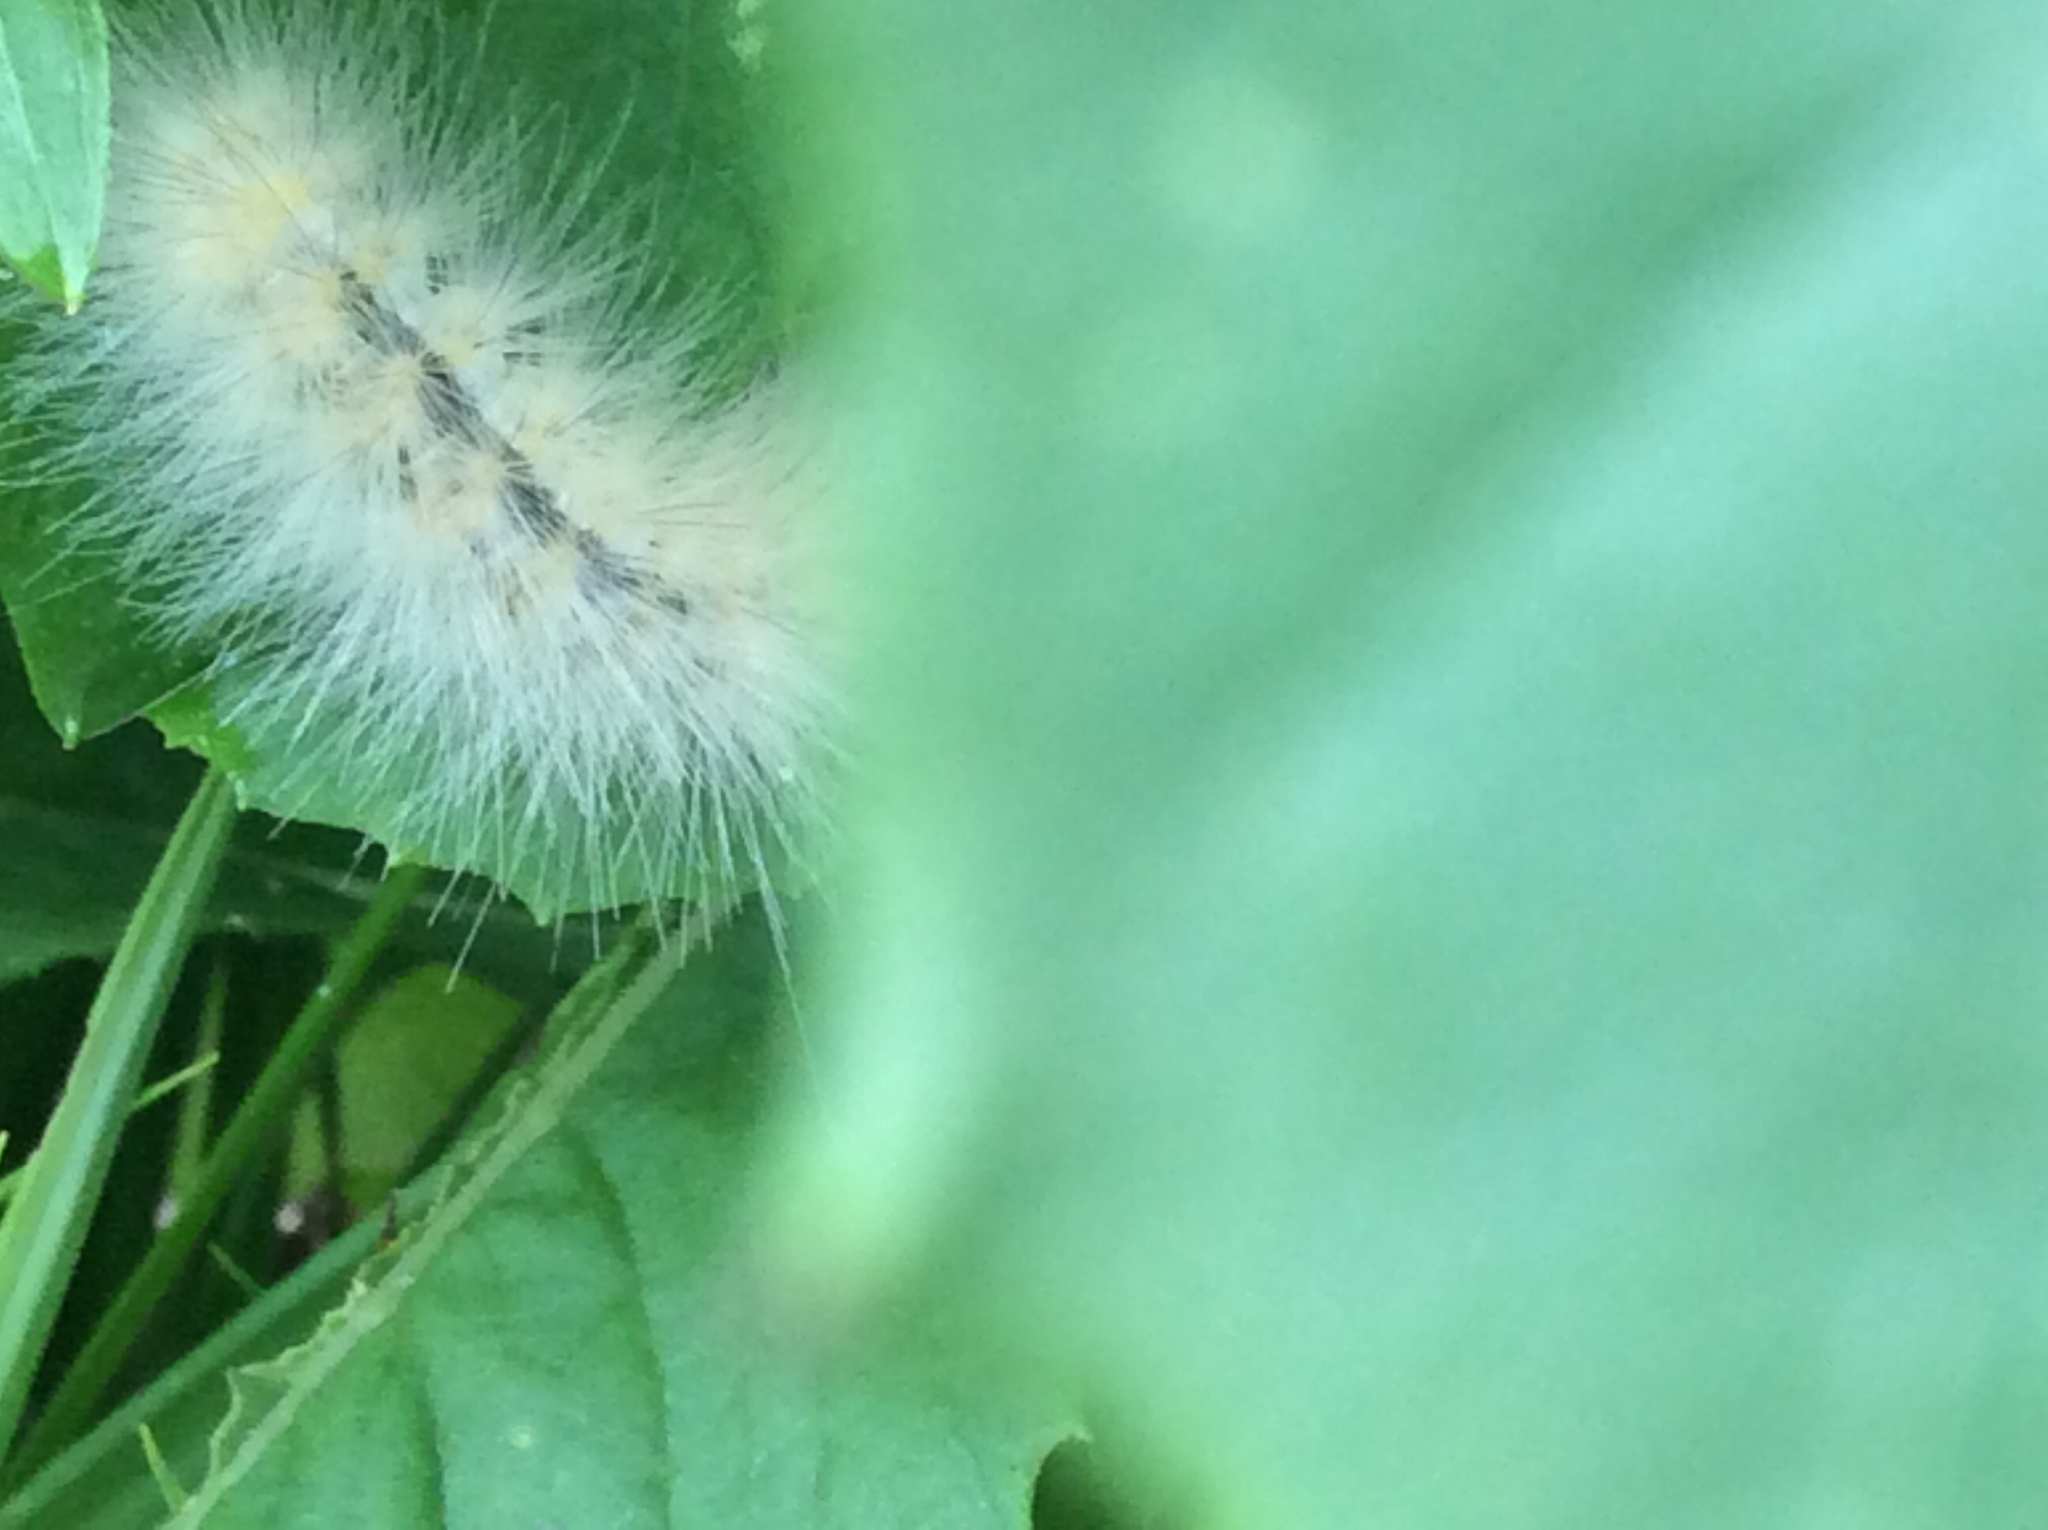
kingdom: Animalia
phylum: Arthropoda
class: Insecta
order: Lepidoptera
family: Erebidae
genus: Spilosoma
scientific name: Spilosoma virginica
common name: Virginia tiger moth
